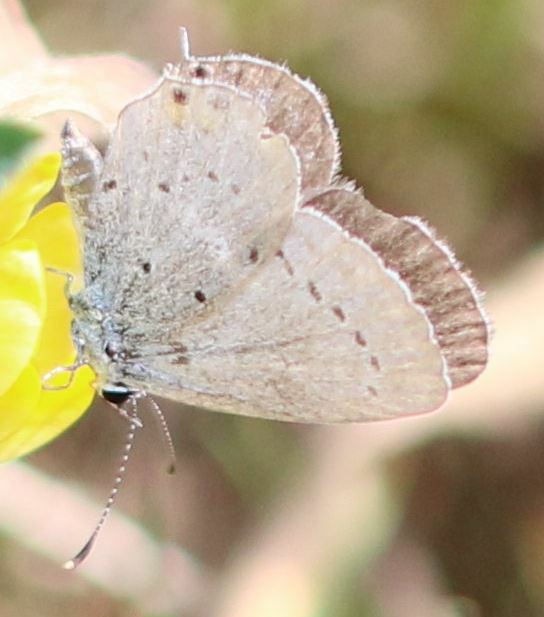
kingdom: Animalia
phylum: Arthropoda
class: Insecta
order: Lepidoptera
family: Lycaenidae
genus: Elkalyce
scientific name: Elkalyce argiades
